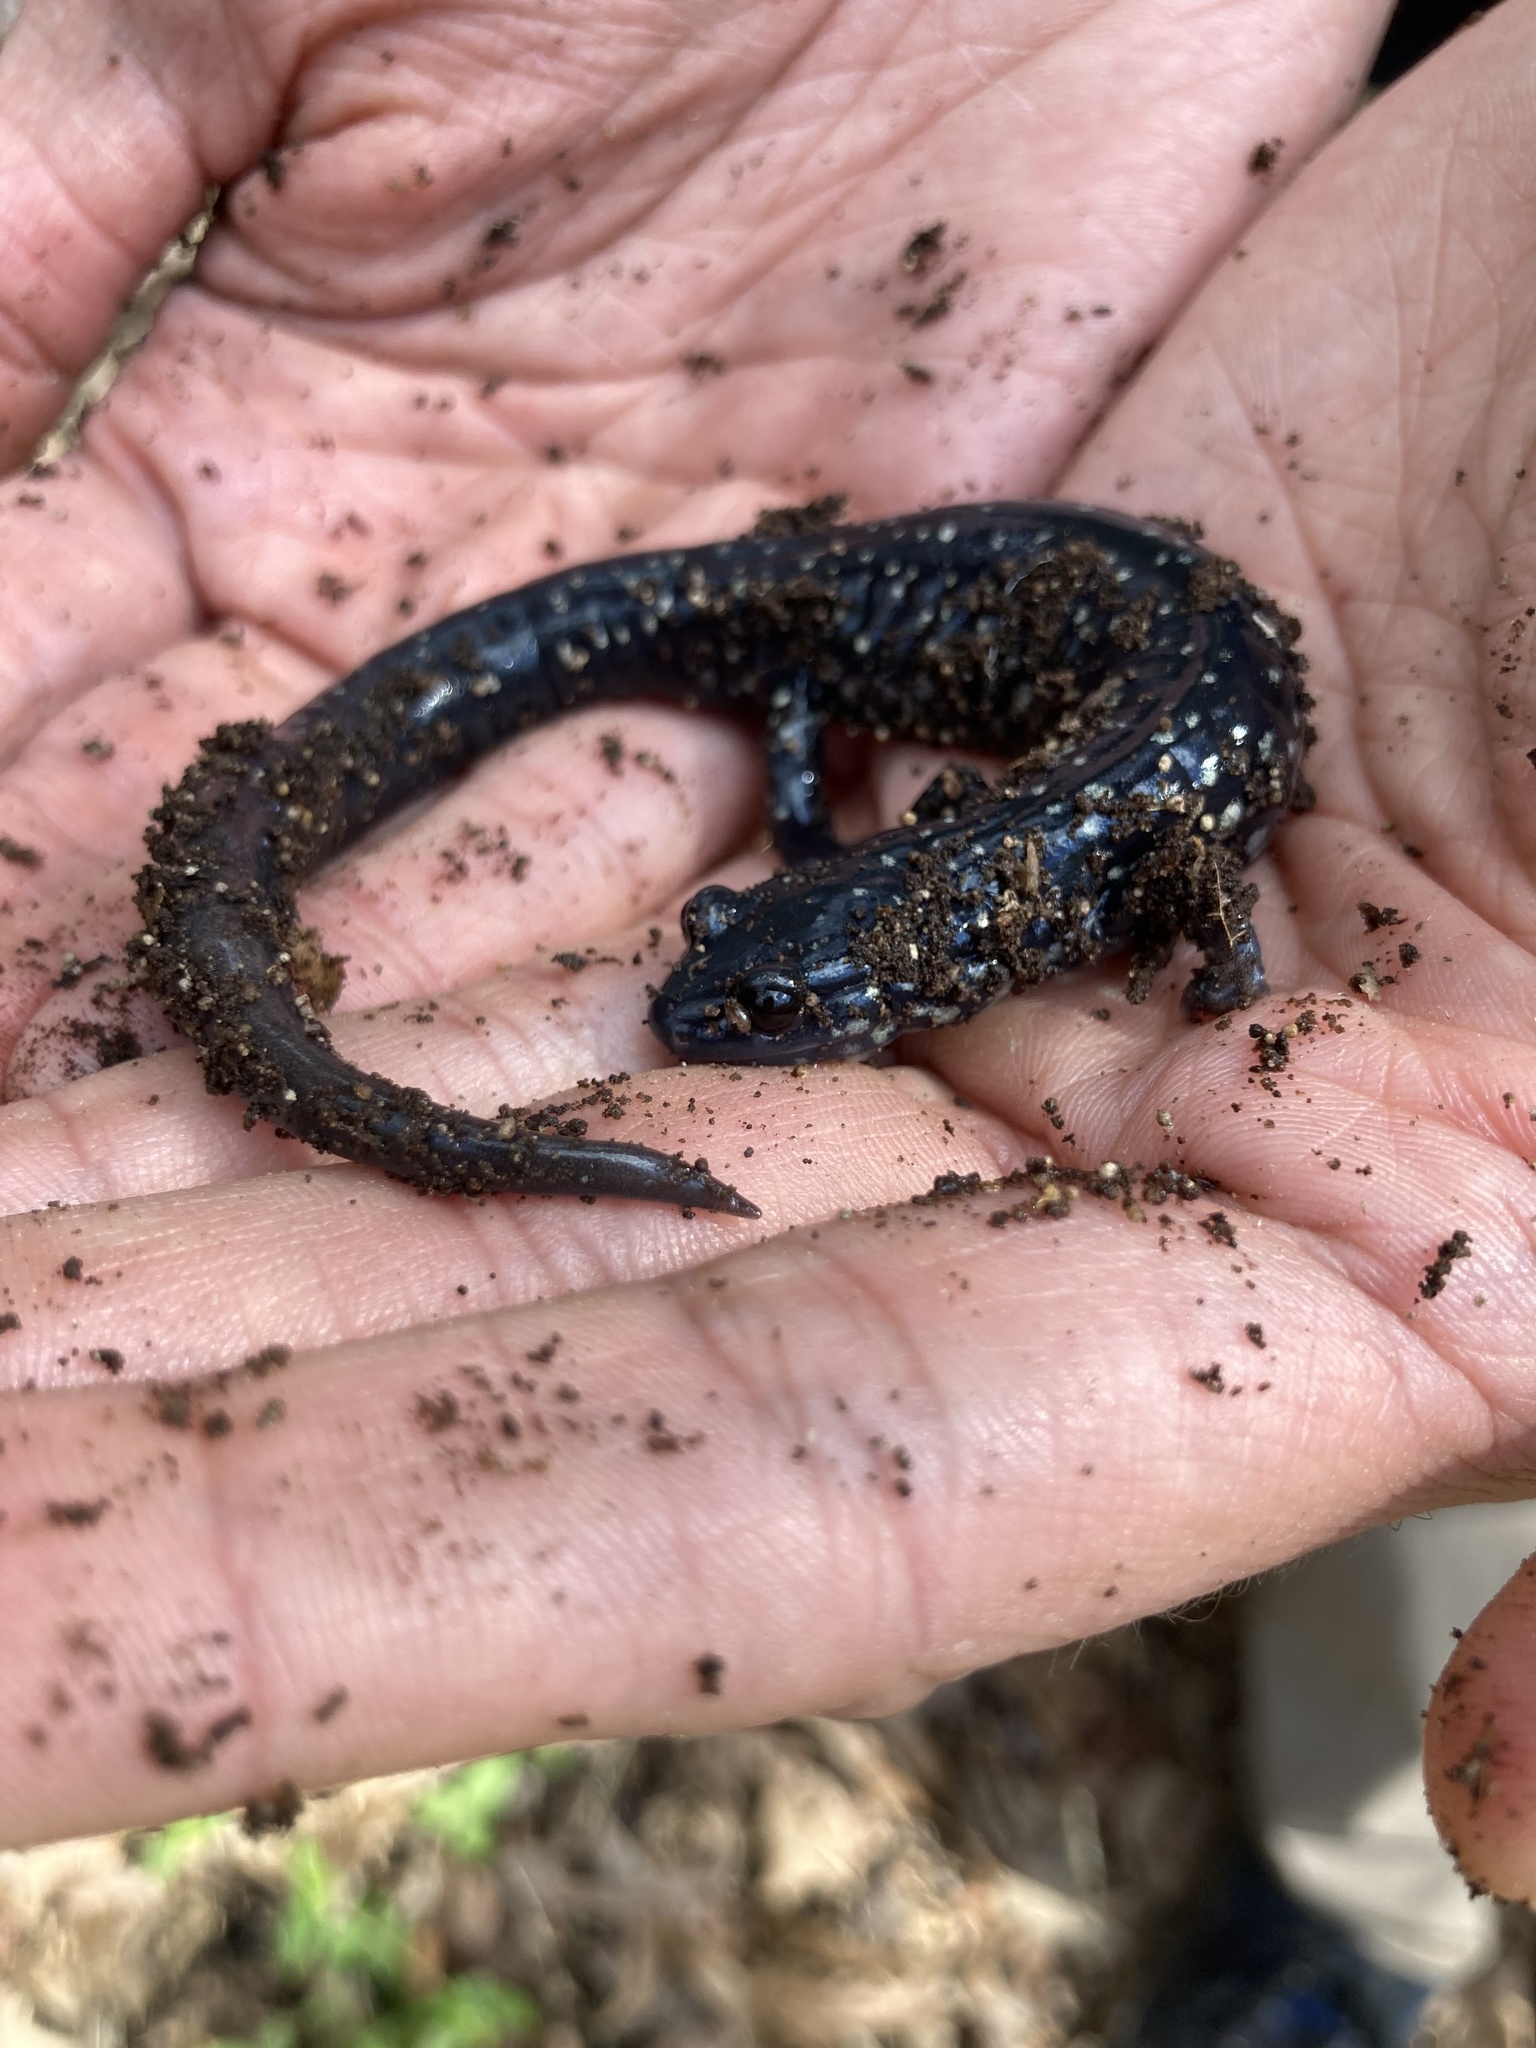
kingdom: Animalia
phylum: Chordata
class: Amphibia
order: Caudata
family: Plethodontidae
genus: Plethodon
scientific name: Plethodon glutinosus
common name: Northern slimy salamander
